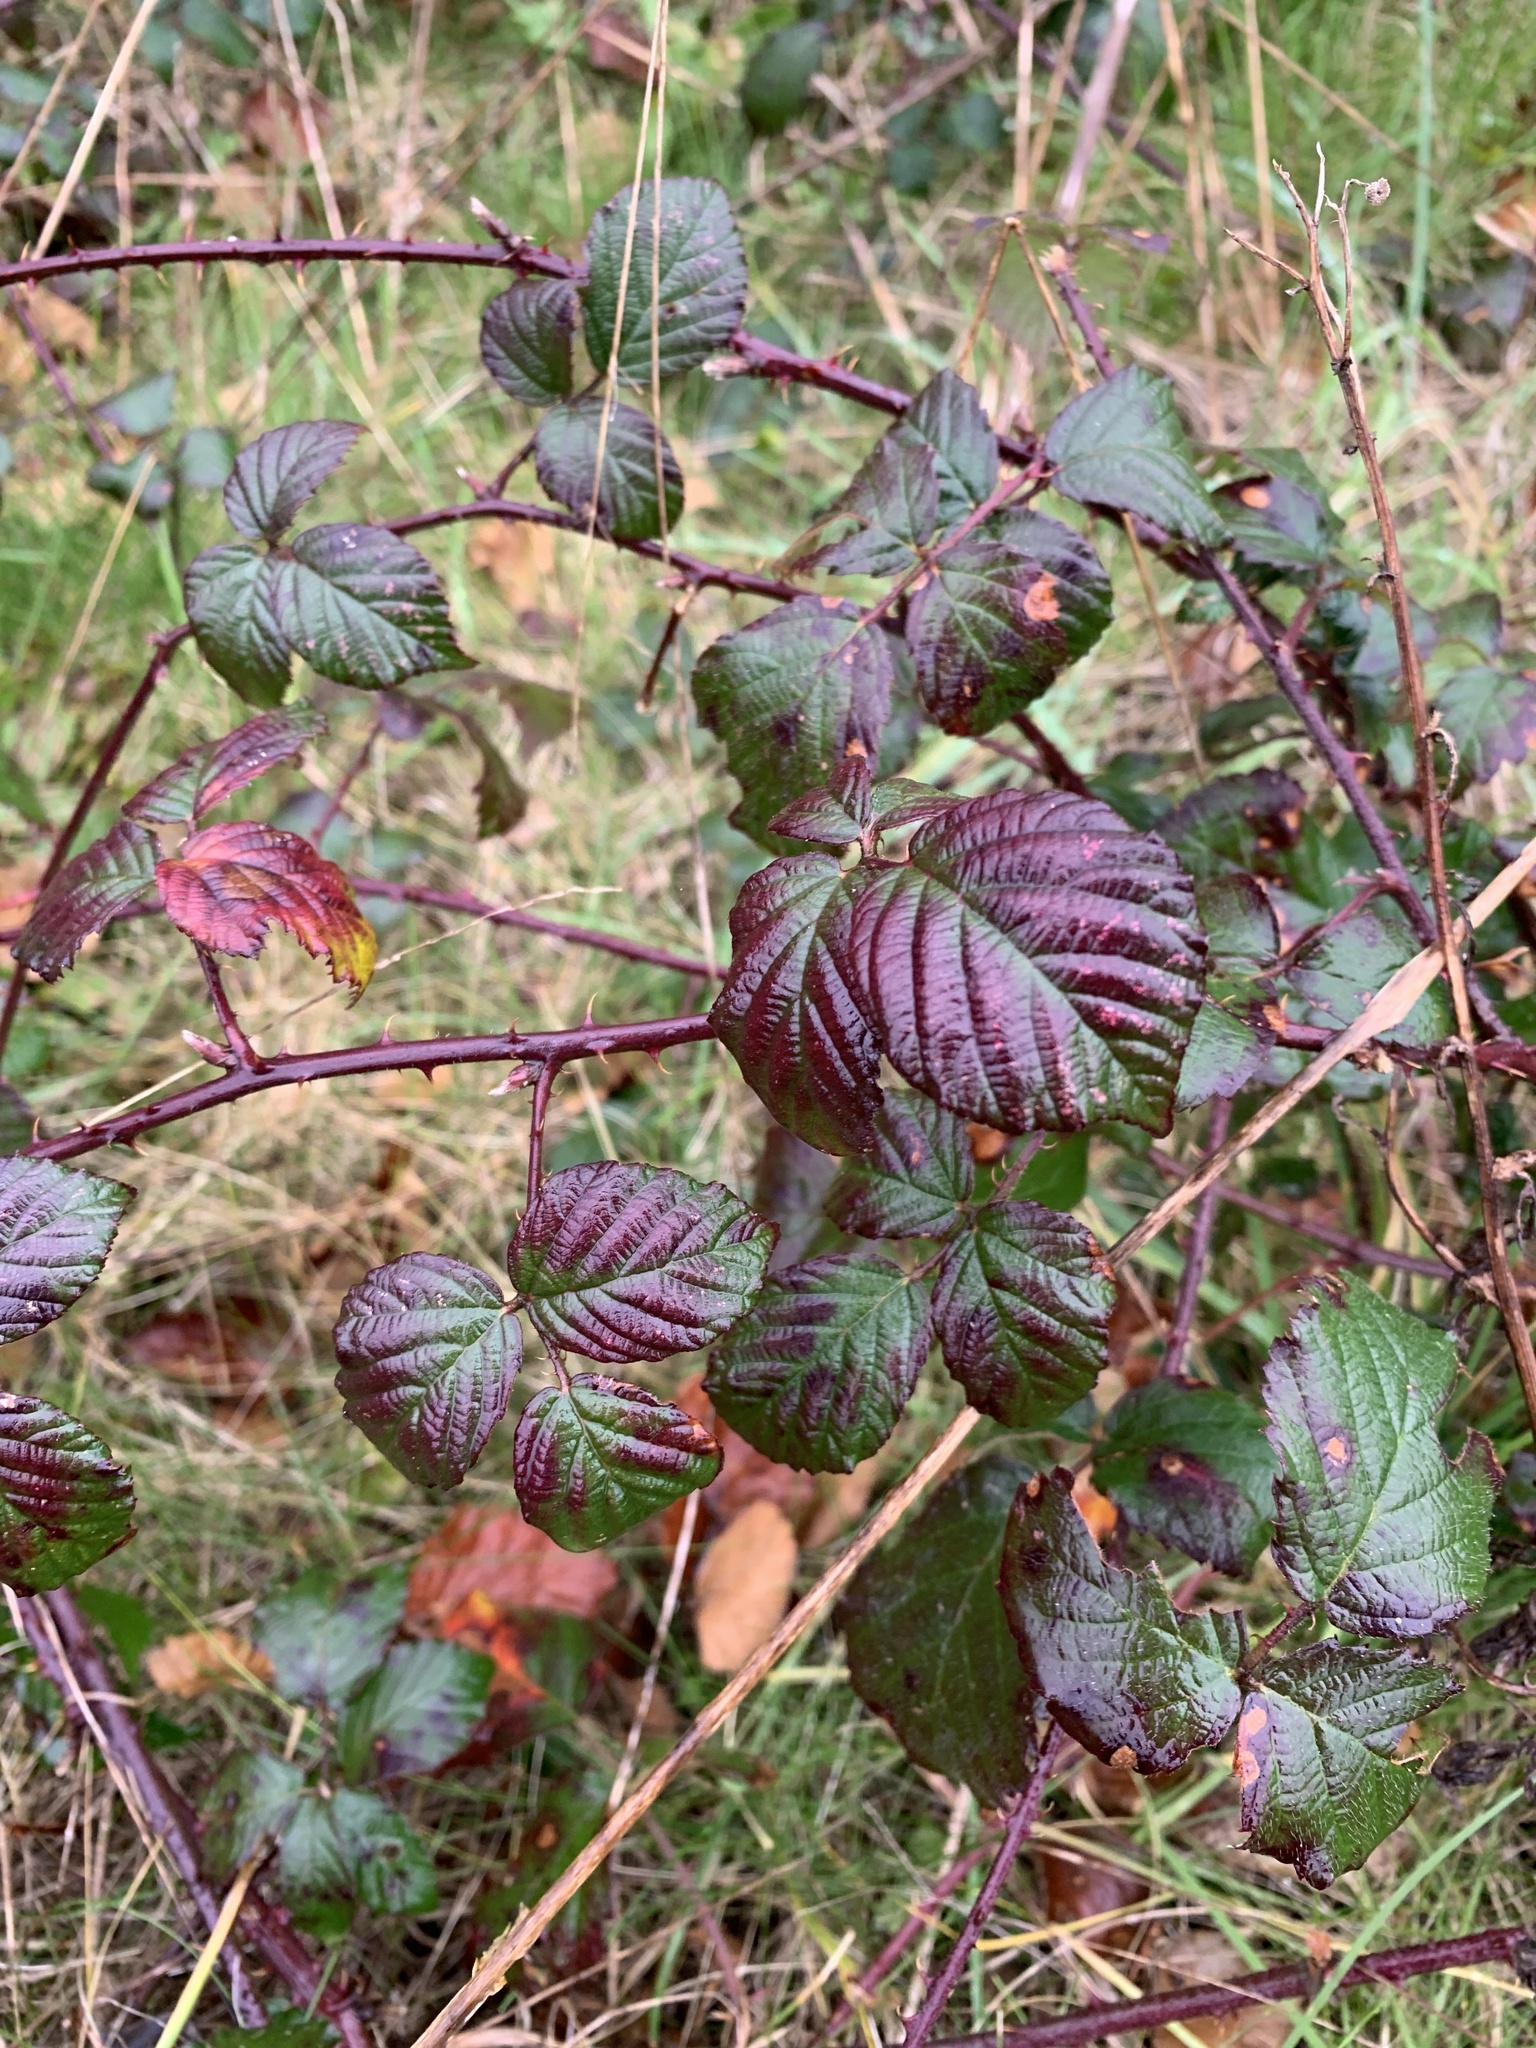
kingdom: Plantae
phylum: Tracheophyta
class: Magnoliopsida
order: Rosales
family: Rosaceae
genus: Rubus
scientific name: Rubus fruticosus
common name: Blackberry, bramble
